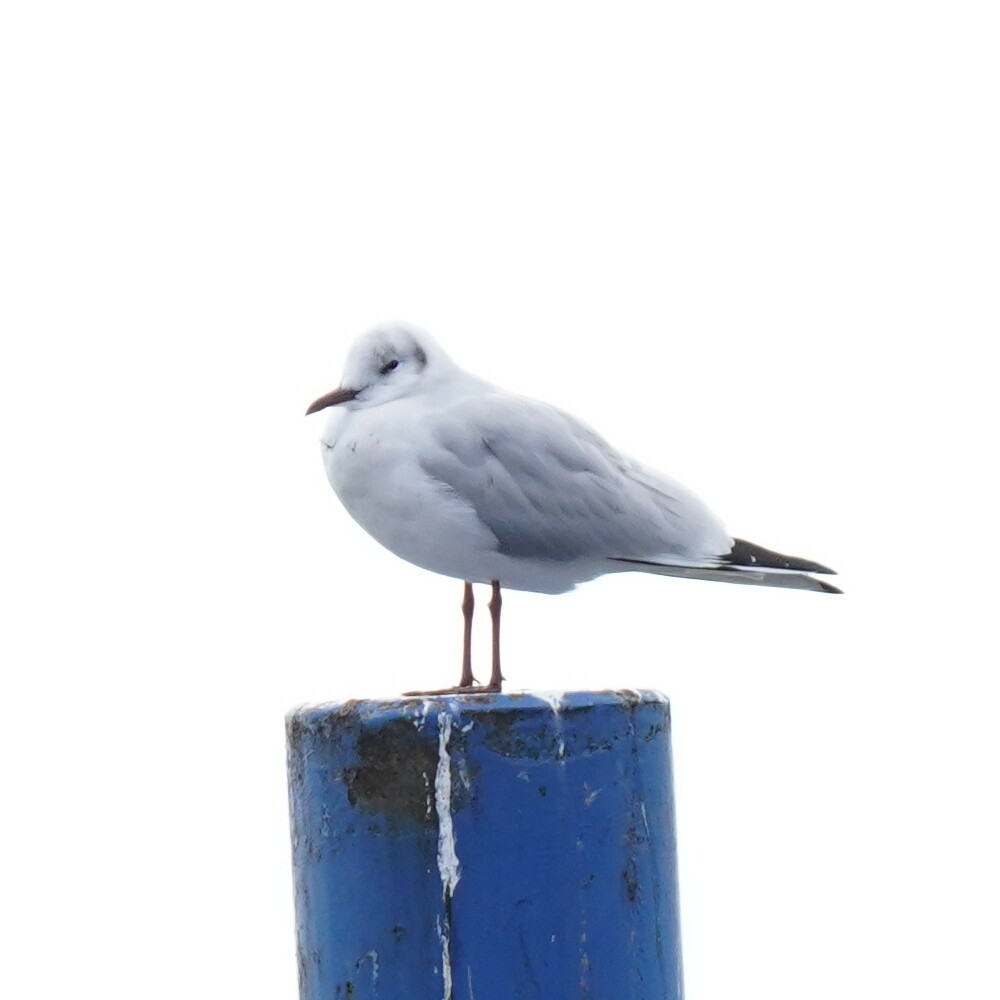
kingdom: Animalia
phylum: Chordata
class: Aves
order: Charadriiformes
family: Laridae
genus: Chroicocephalus
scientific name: Chroicocephalus ridibundus
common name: Black-headed gull
